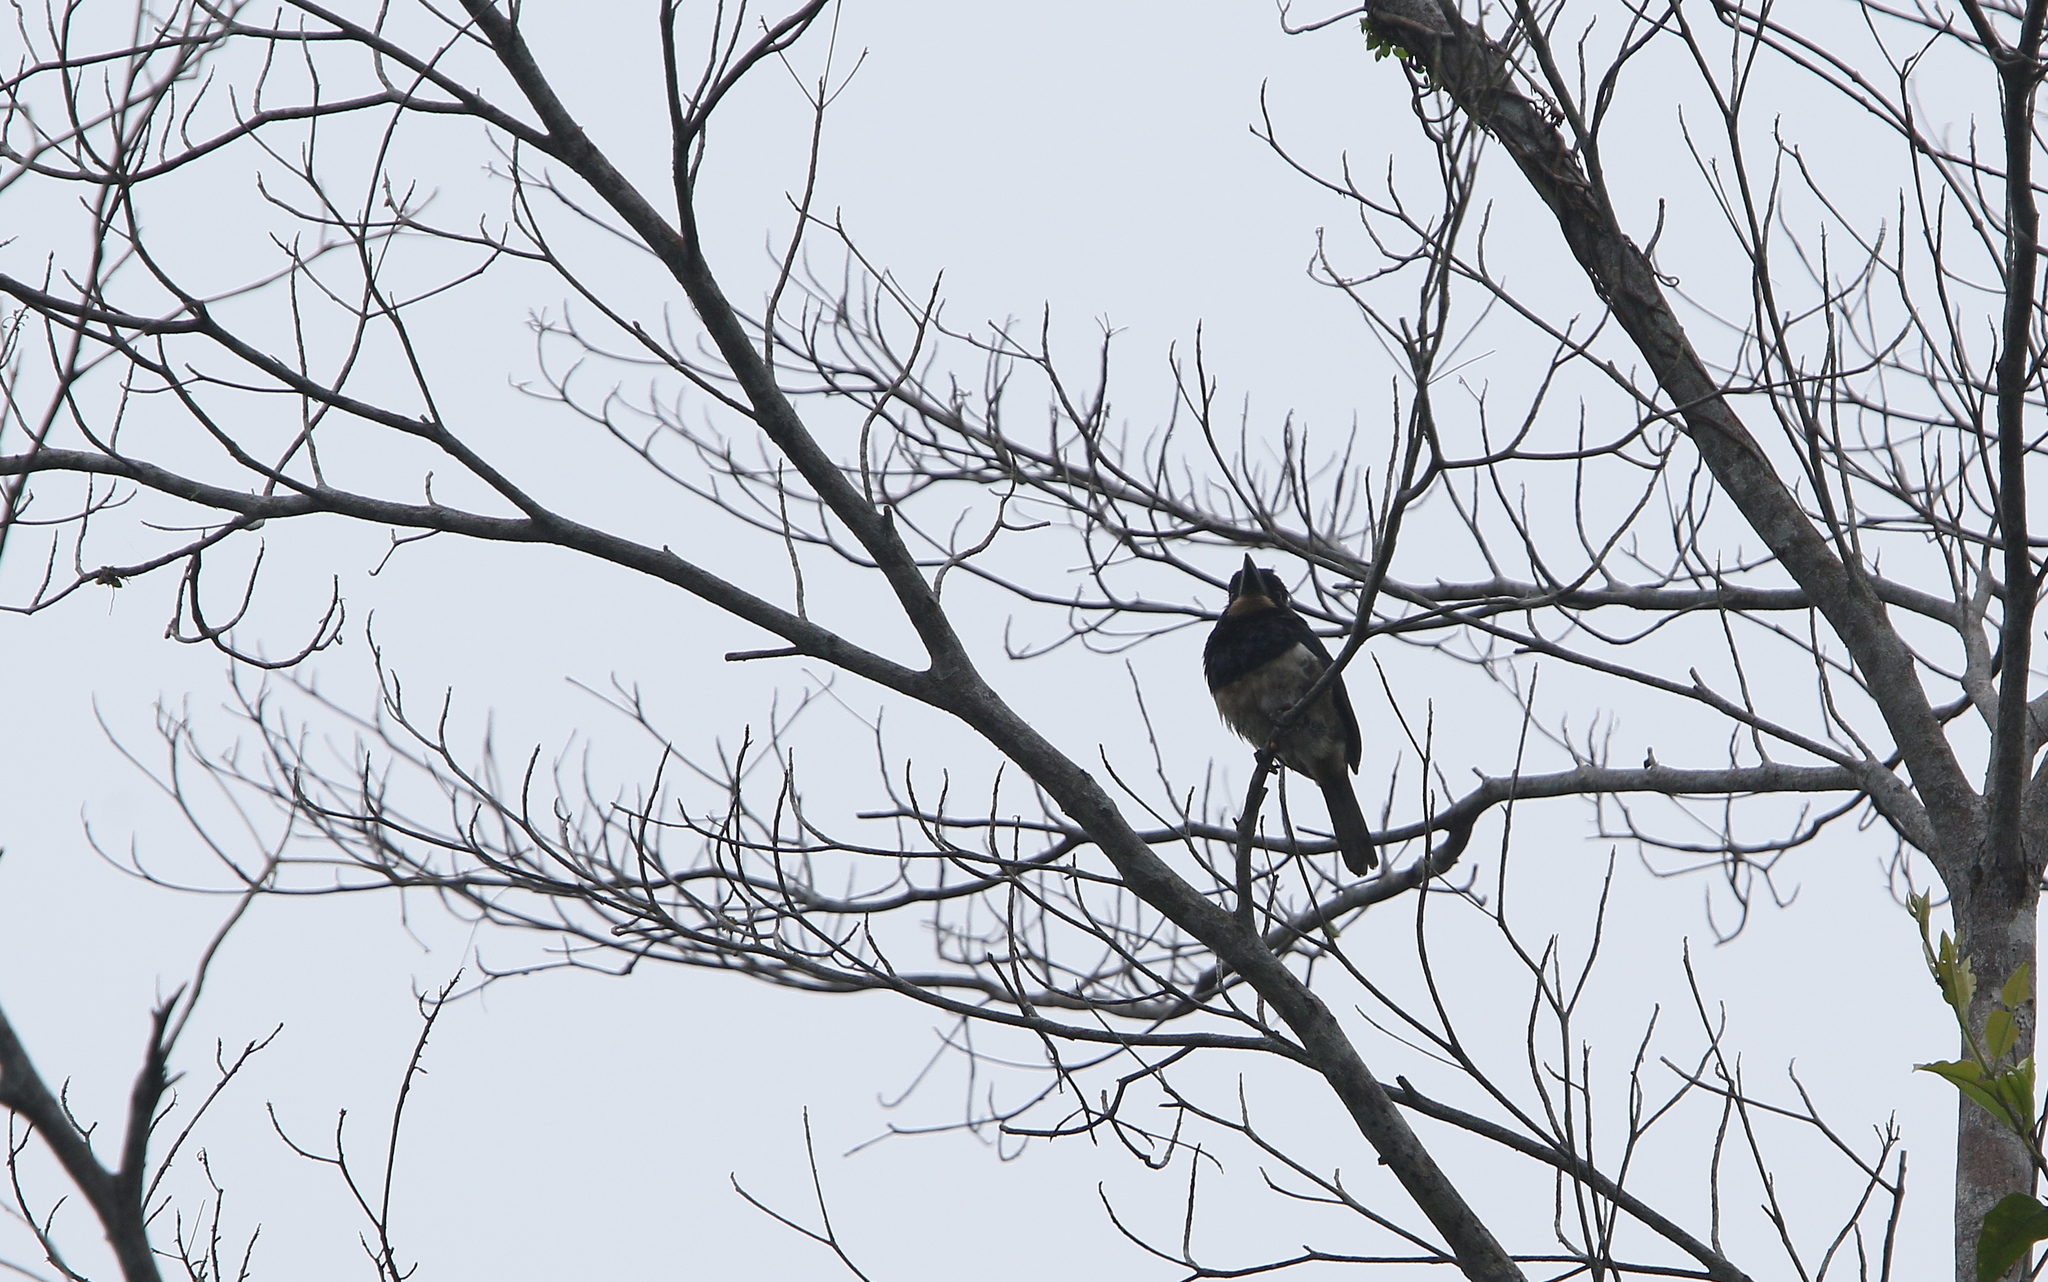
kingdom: Animalia
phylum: Chordata
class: Aves
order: Piciformes
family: Bucconidae
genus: Notharchus
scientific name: Notharchus pectoralis
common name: Black-breasted puffbird
